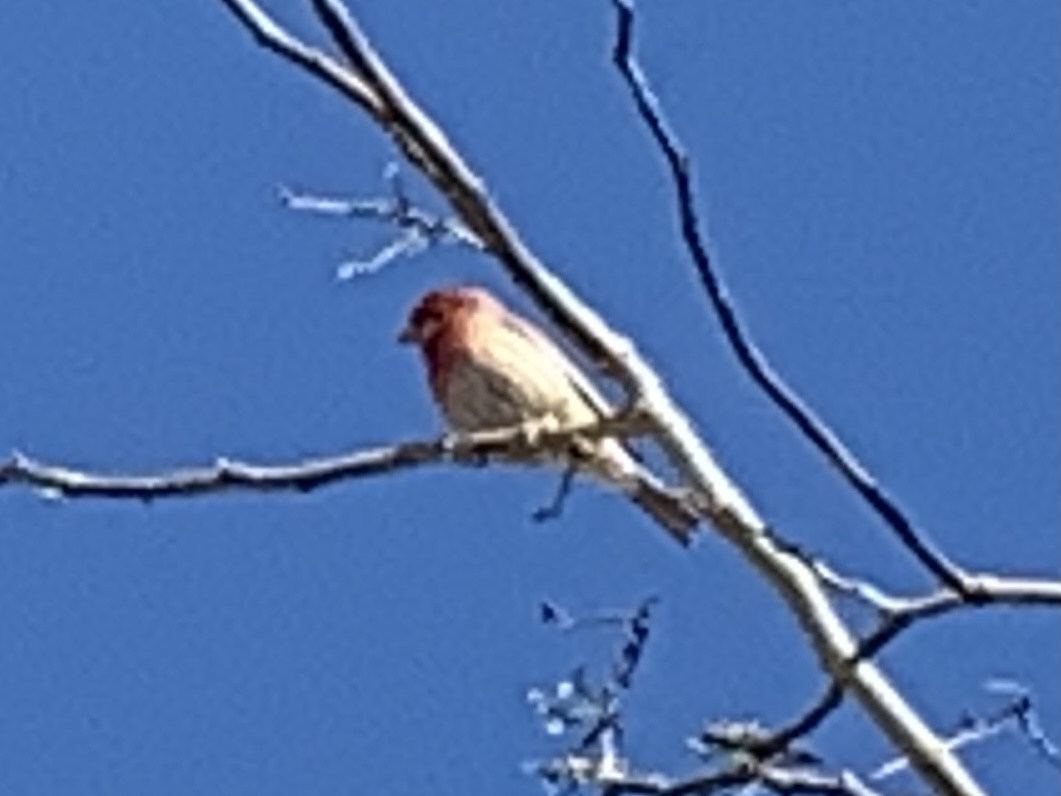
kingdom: Animalia
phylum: Chordata
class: Aves
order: Passeriformes
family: Fringillidae
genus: Haemorhous
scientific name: Haemorhous mexicanus
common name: House finch
